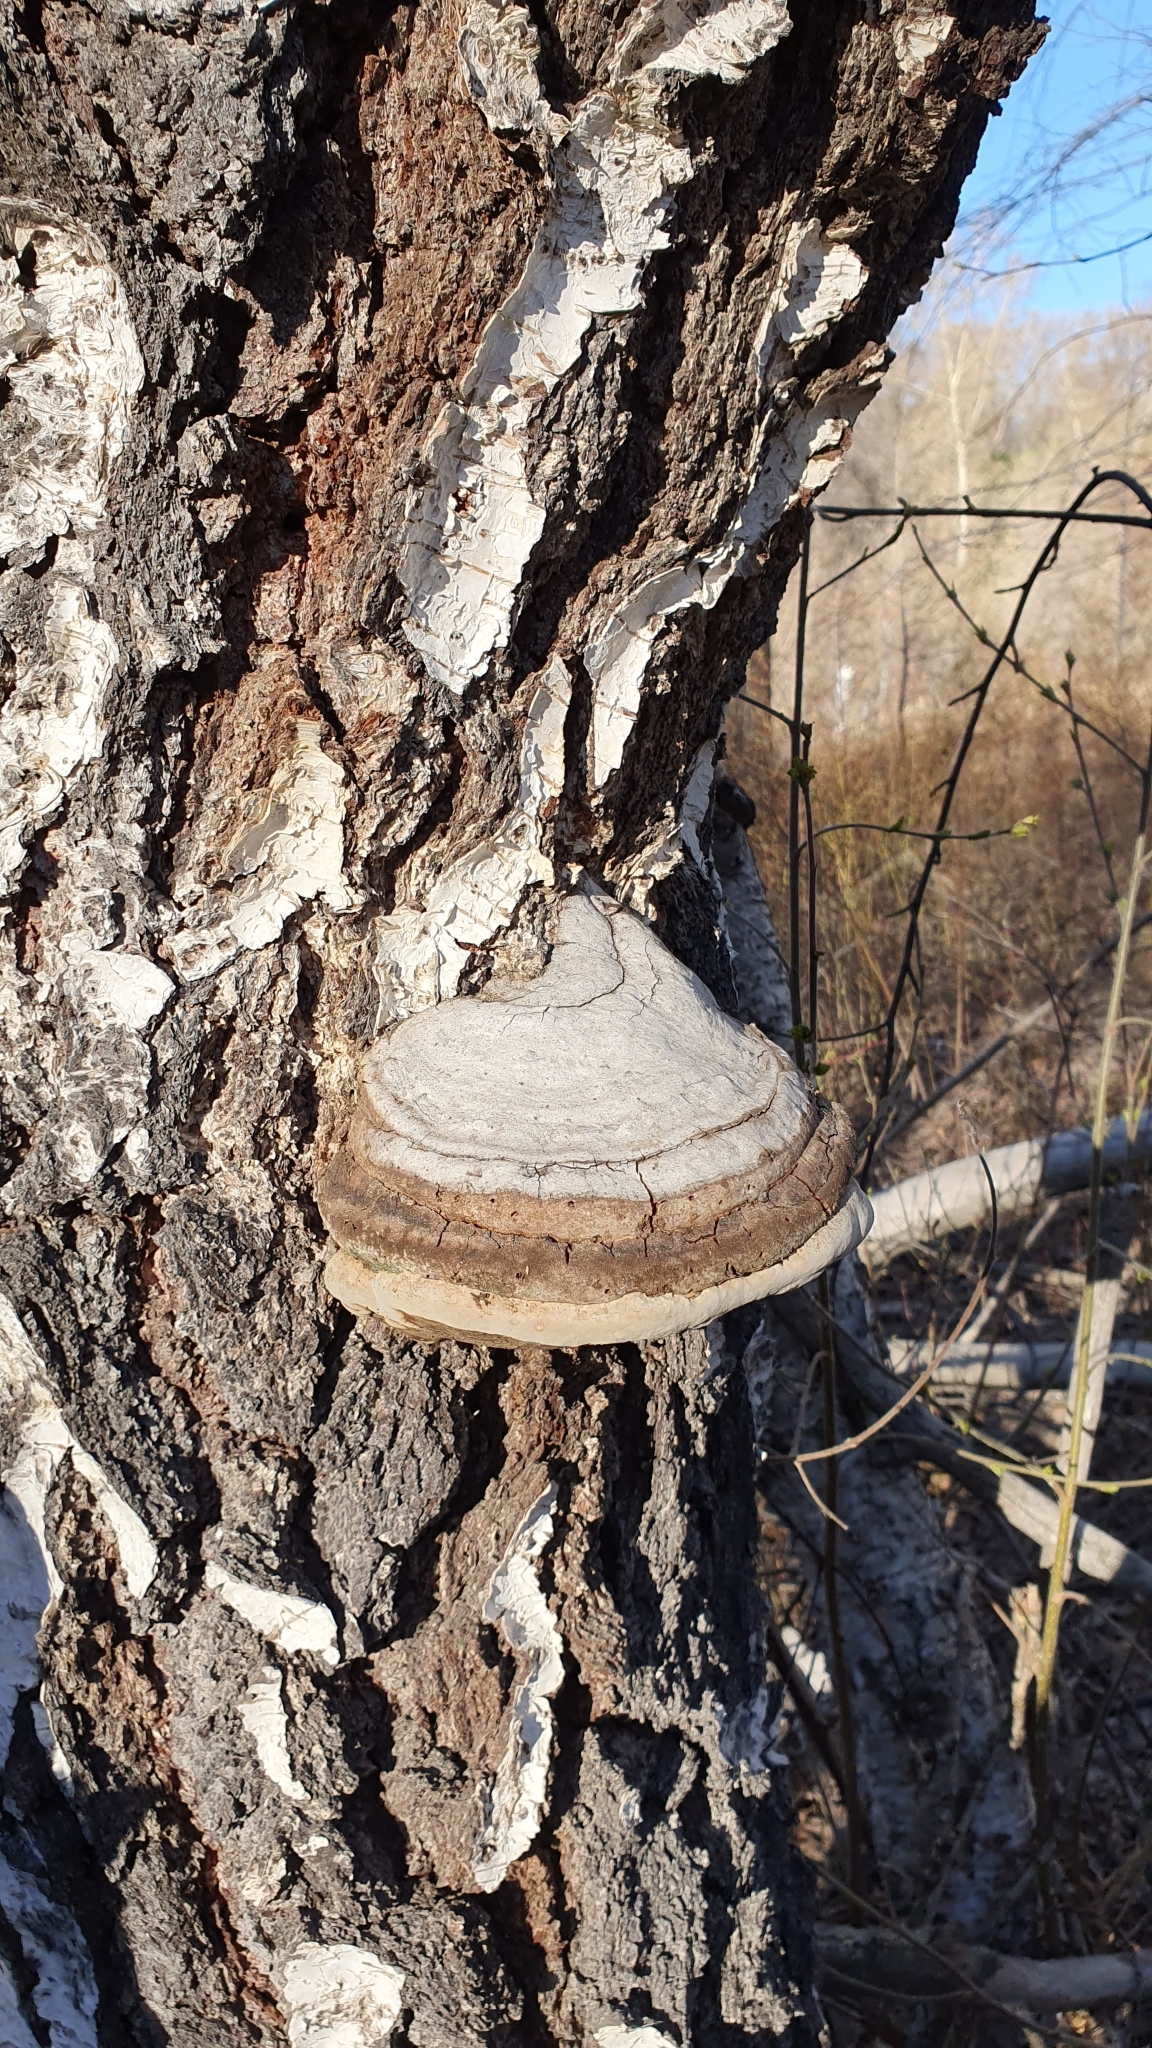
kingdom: Fungi
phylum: Basidiomycota
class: Agaricomycetes
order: Polyporales
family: Polyporaceae
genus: Fomes
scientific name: Fomes fomentarius
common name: Hoof fungus
